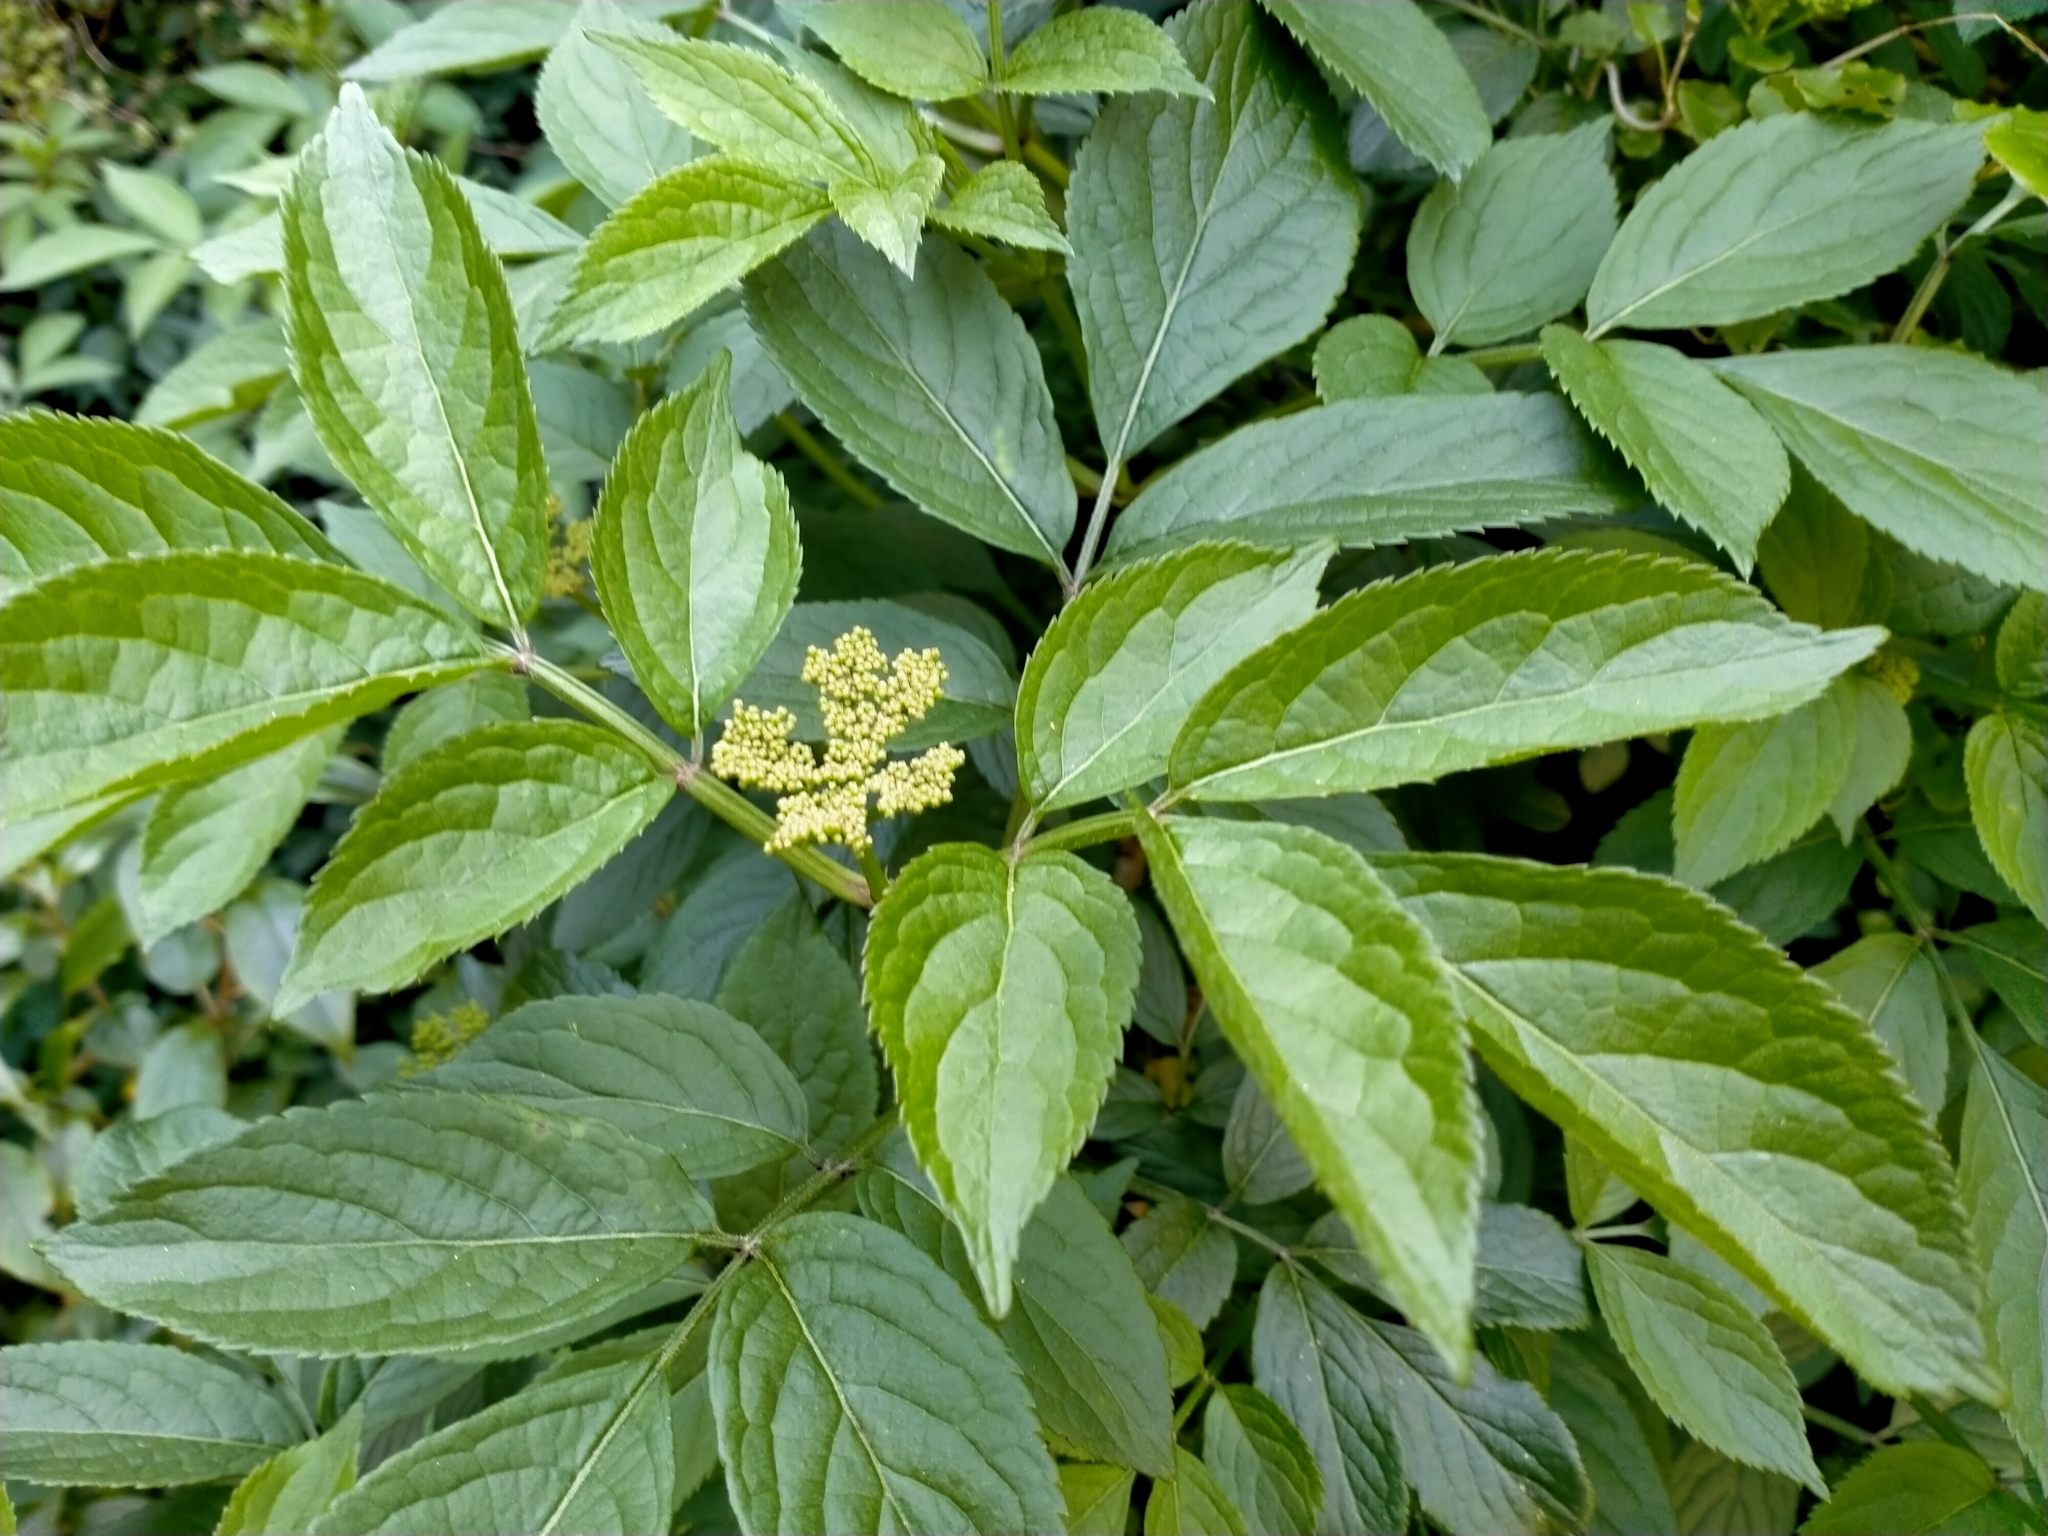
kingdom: Plantae
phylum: Tracheophyta
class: Magnoliopsida
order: Dipsacales
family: Viburnaceae
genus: Sambucus
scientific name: Sambucus nigra
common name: Elder
